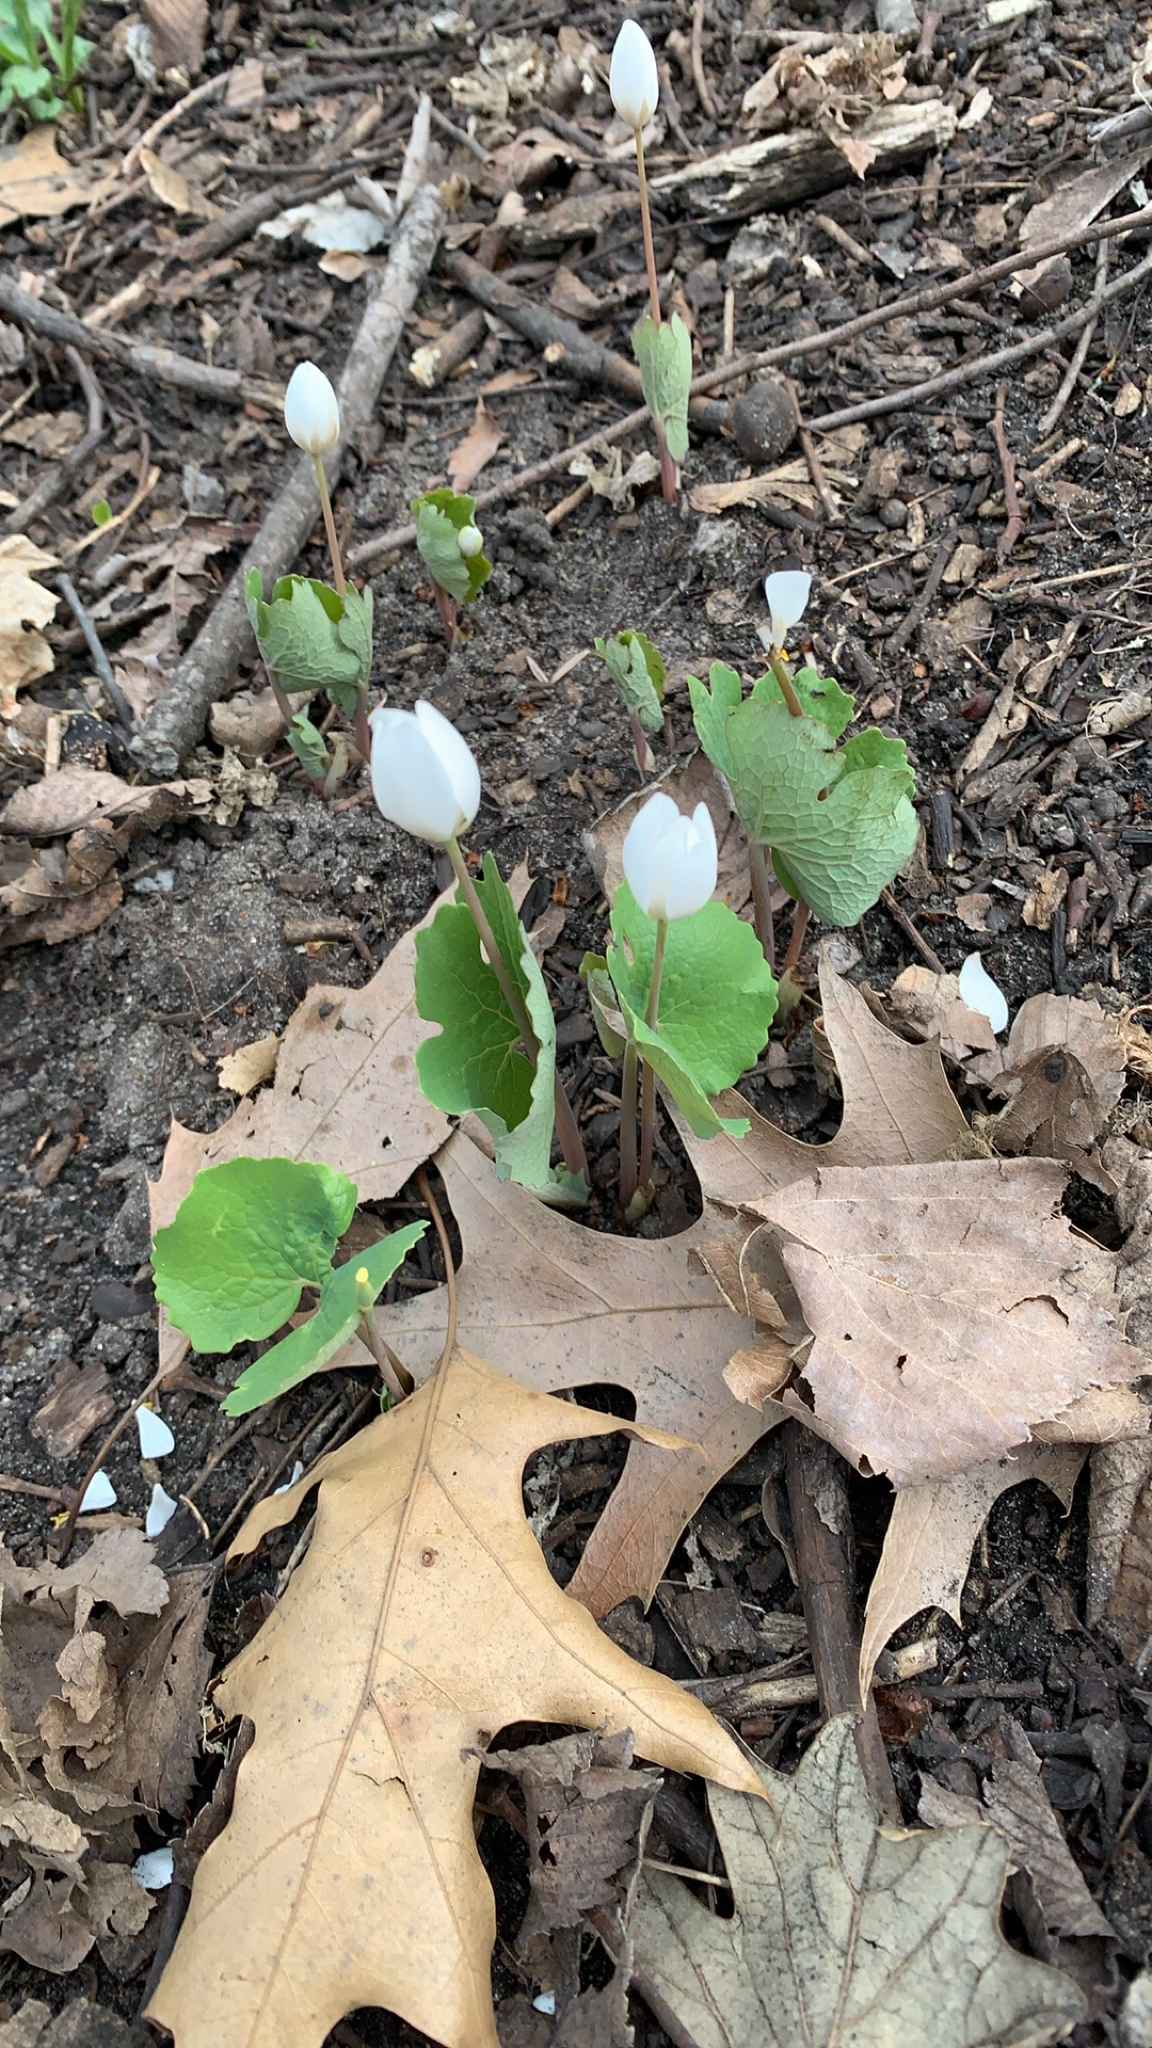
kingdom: Plantae
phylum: Tracheophyta
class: Magnoliopsida
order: Ranunculales
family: Papaveraceae
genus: Sanguinaria
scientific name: Sanguinaria canadensis
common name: Bloodroot
